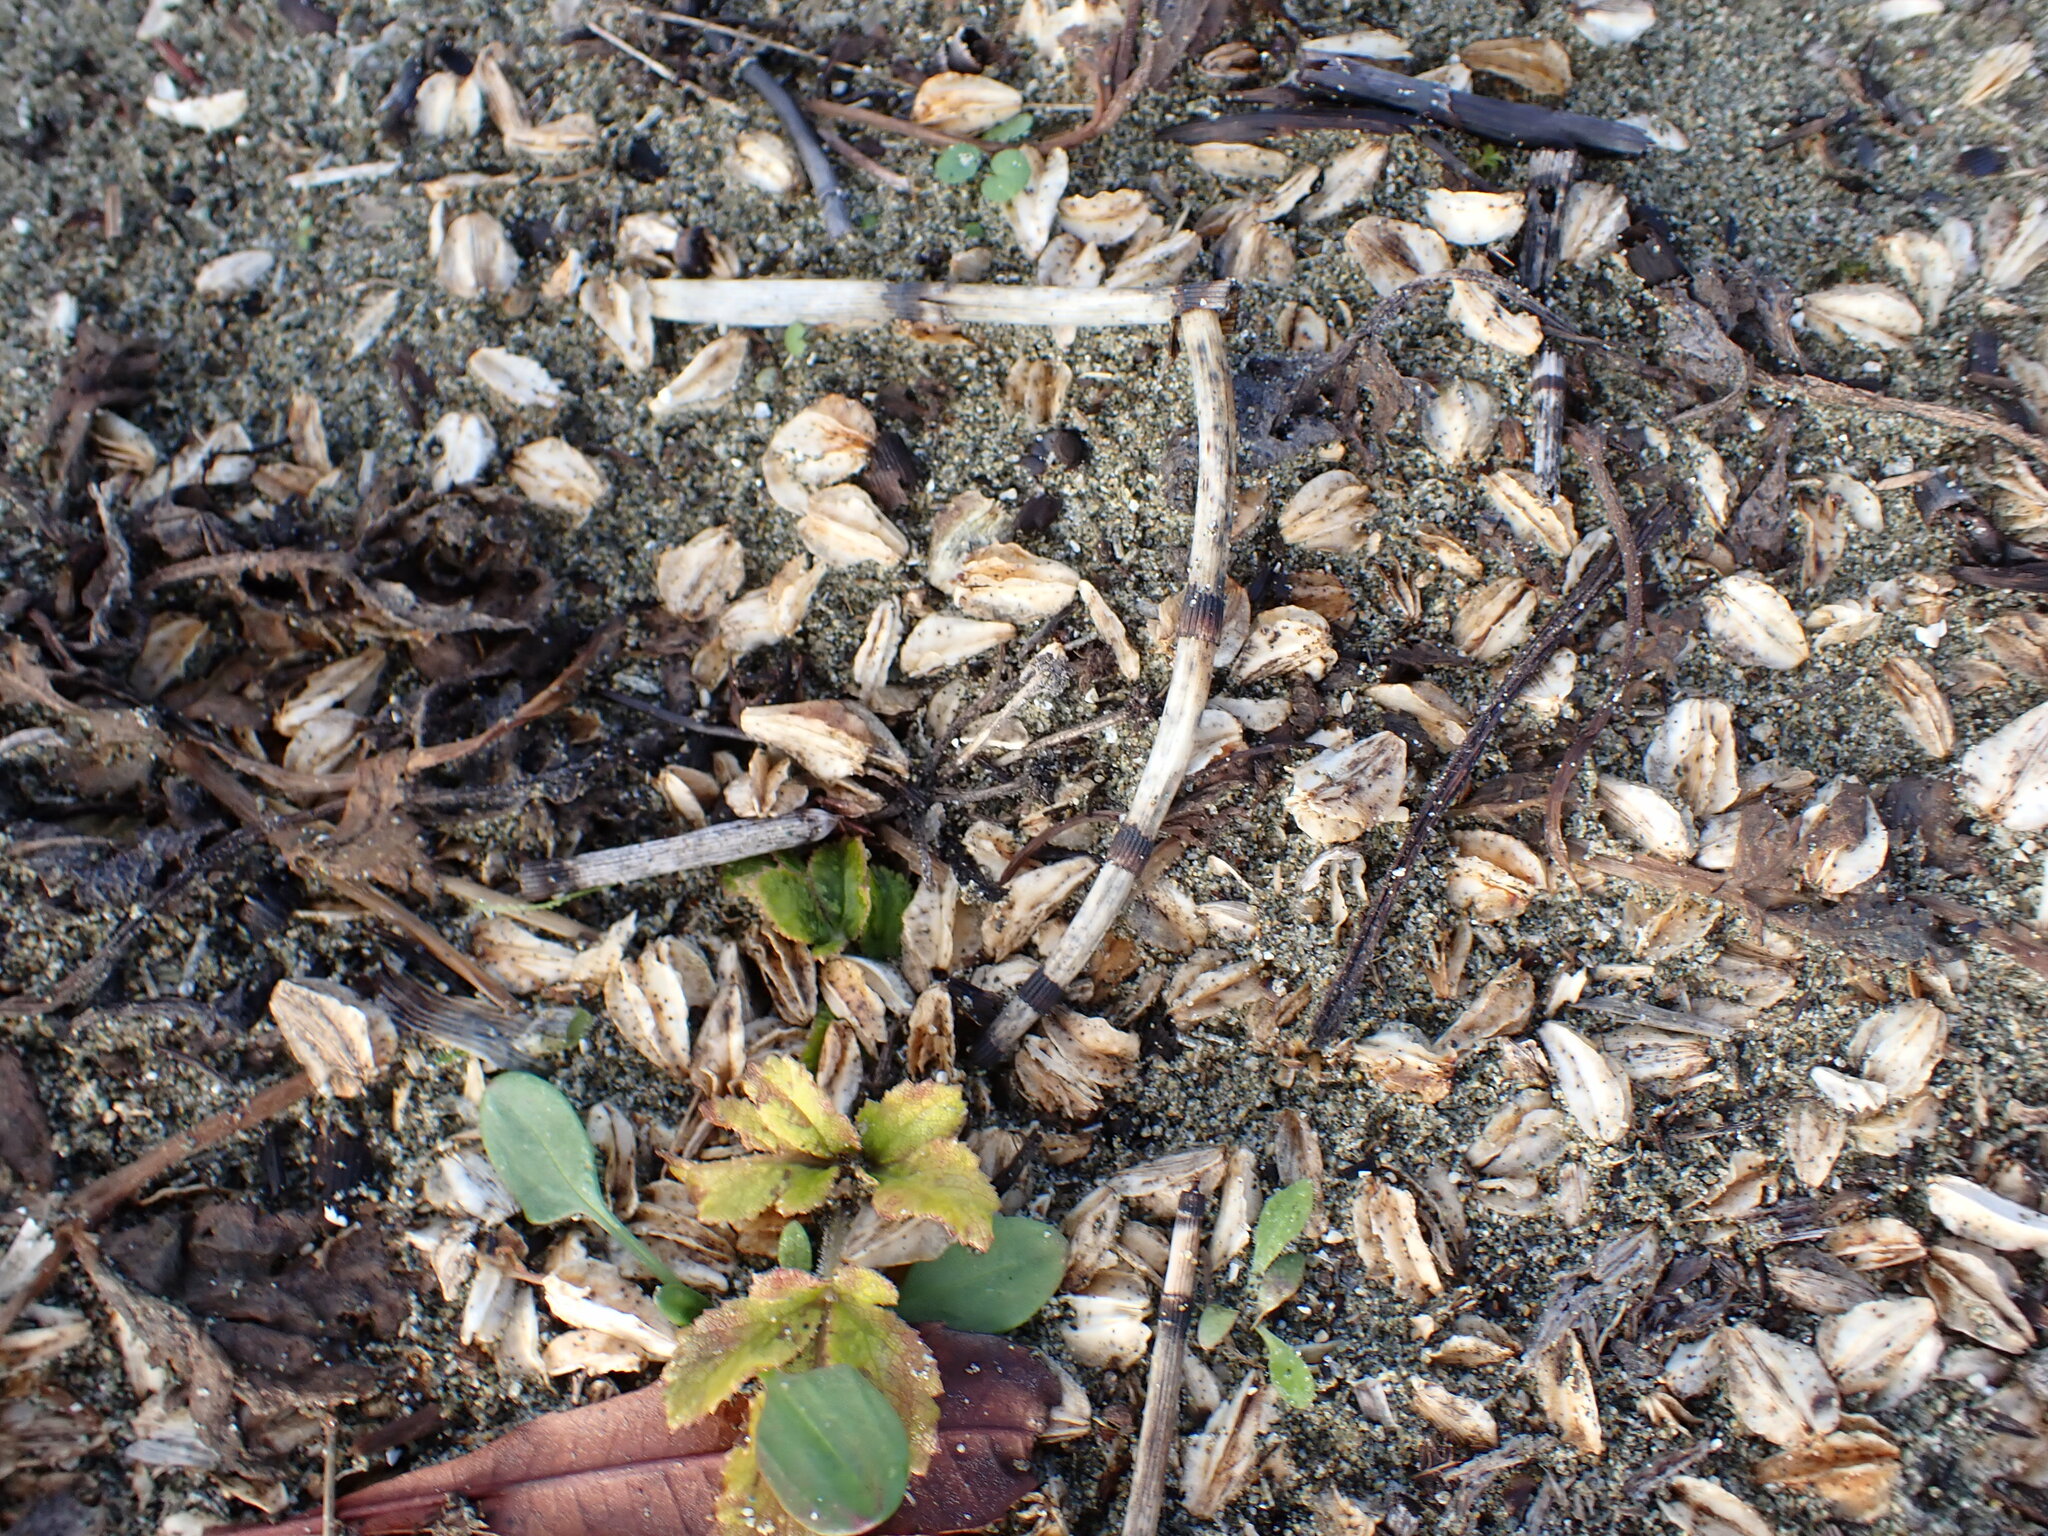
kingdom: Plantae
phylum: Tracheophyta
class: Magnoliopsida
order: Apiales
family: Apiaceae
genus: Glehnia
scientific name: Glehnia littoralis
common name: Beach silvertop
